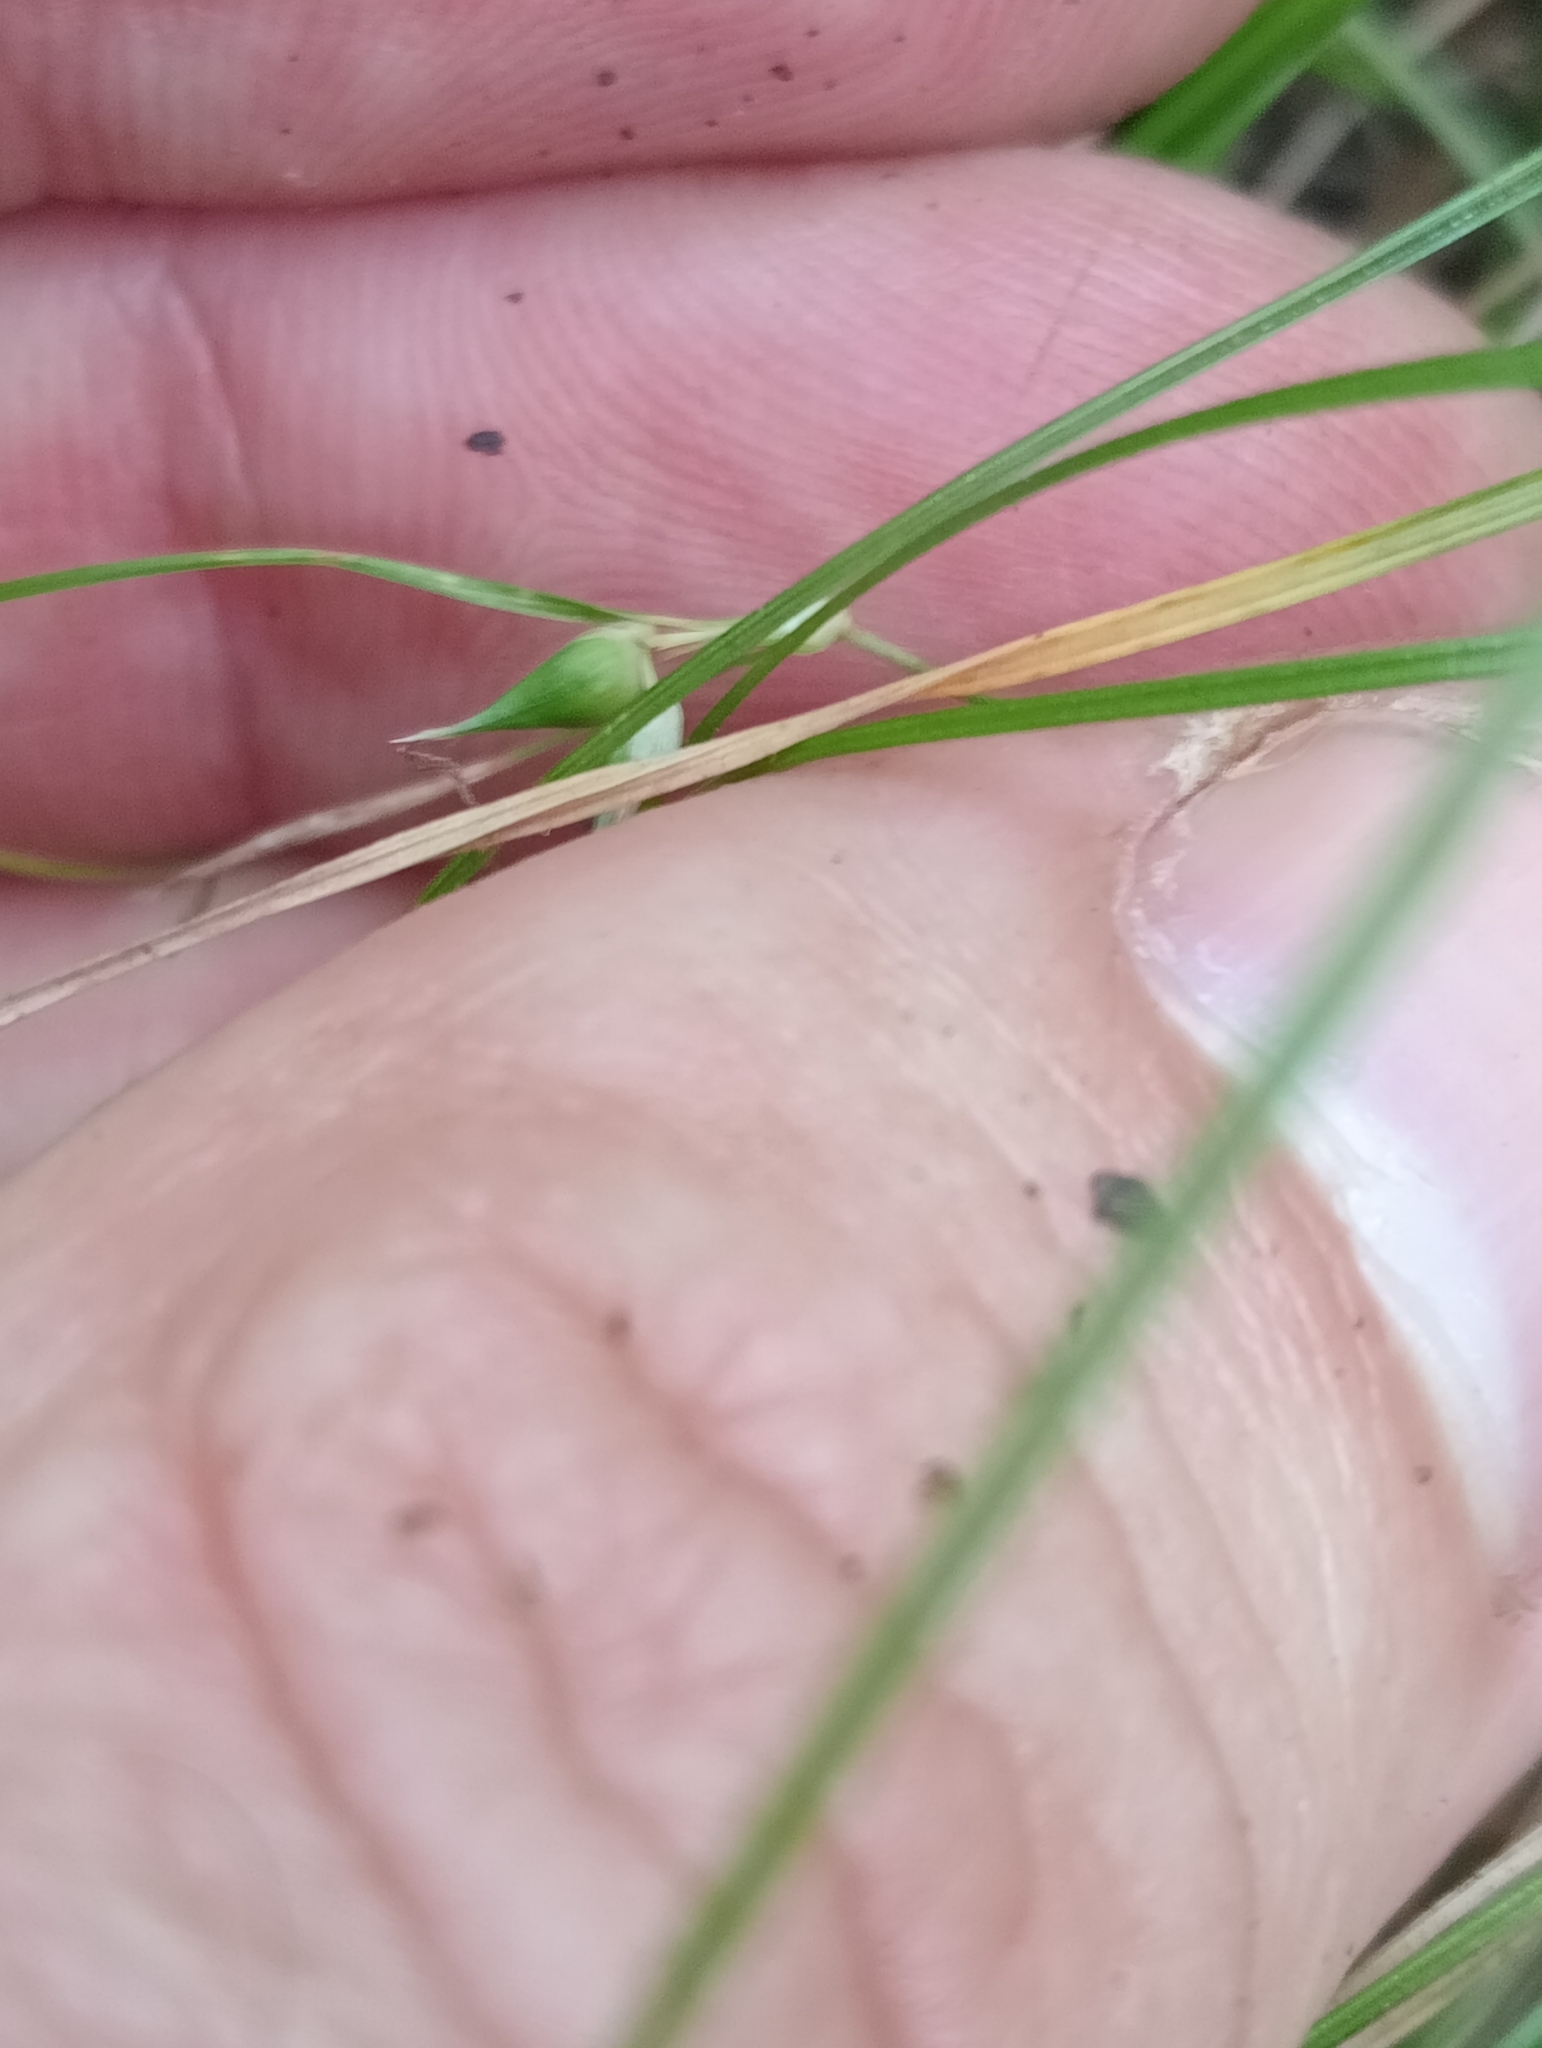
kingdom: Plantae
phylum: Tracheophyta
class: Liliopsida
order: Poales
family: Cyperaceae
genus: Carex
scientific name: Carex inopinata
